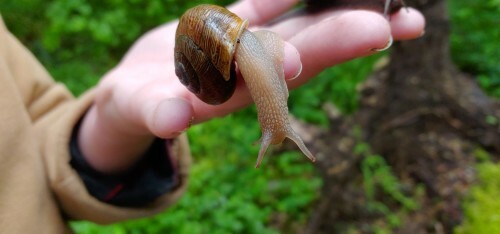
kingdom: Animalia
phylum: Mollusca
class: Gastropoda
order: Stylommatophora
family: Polygyridae
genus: Allogona
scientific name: Allogona townsendiana
